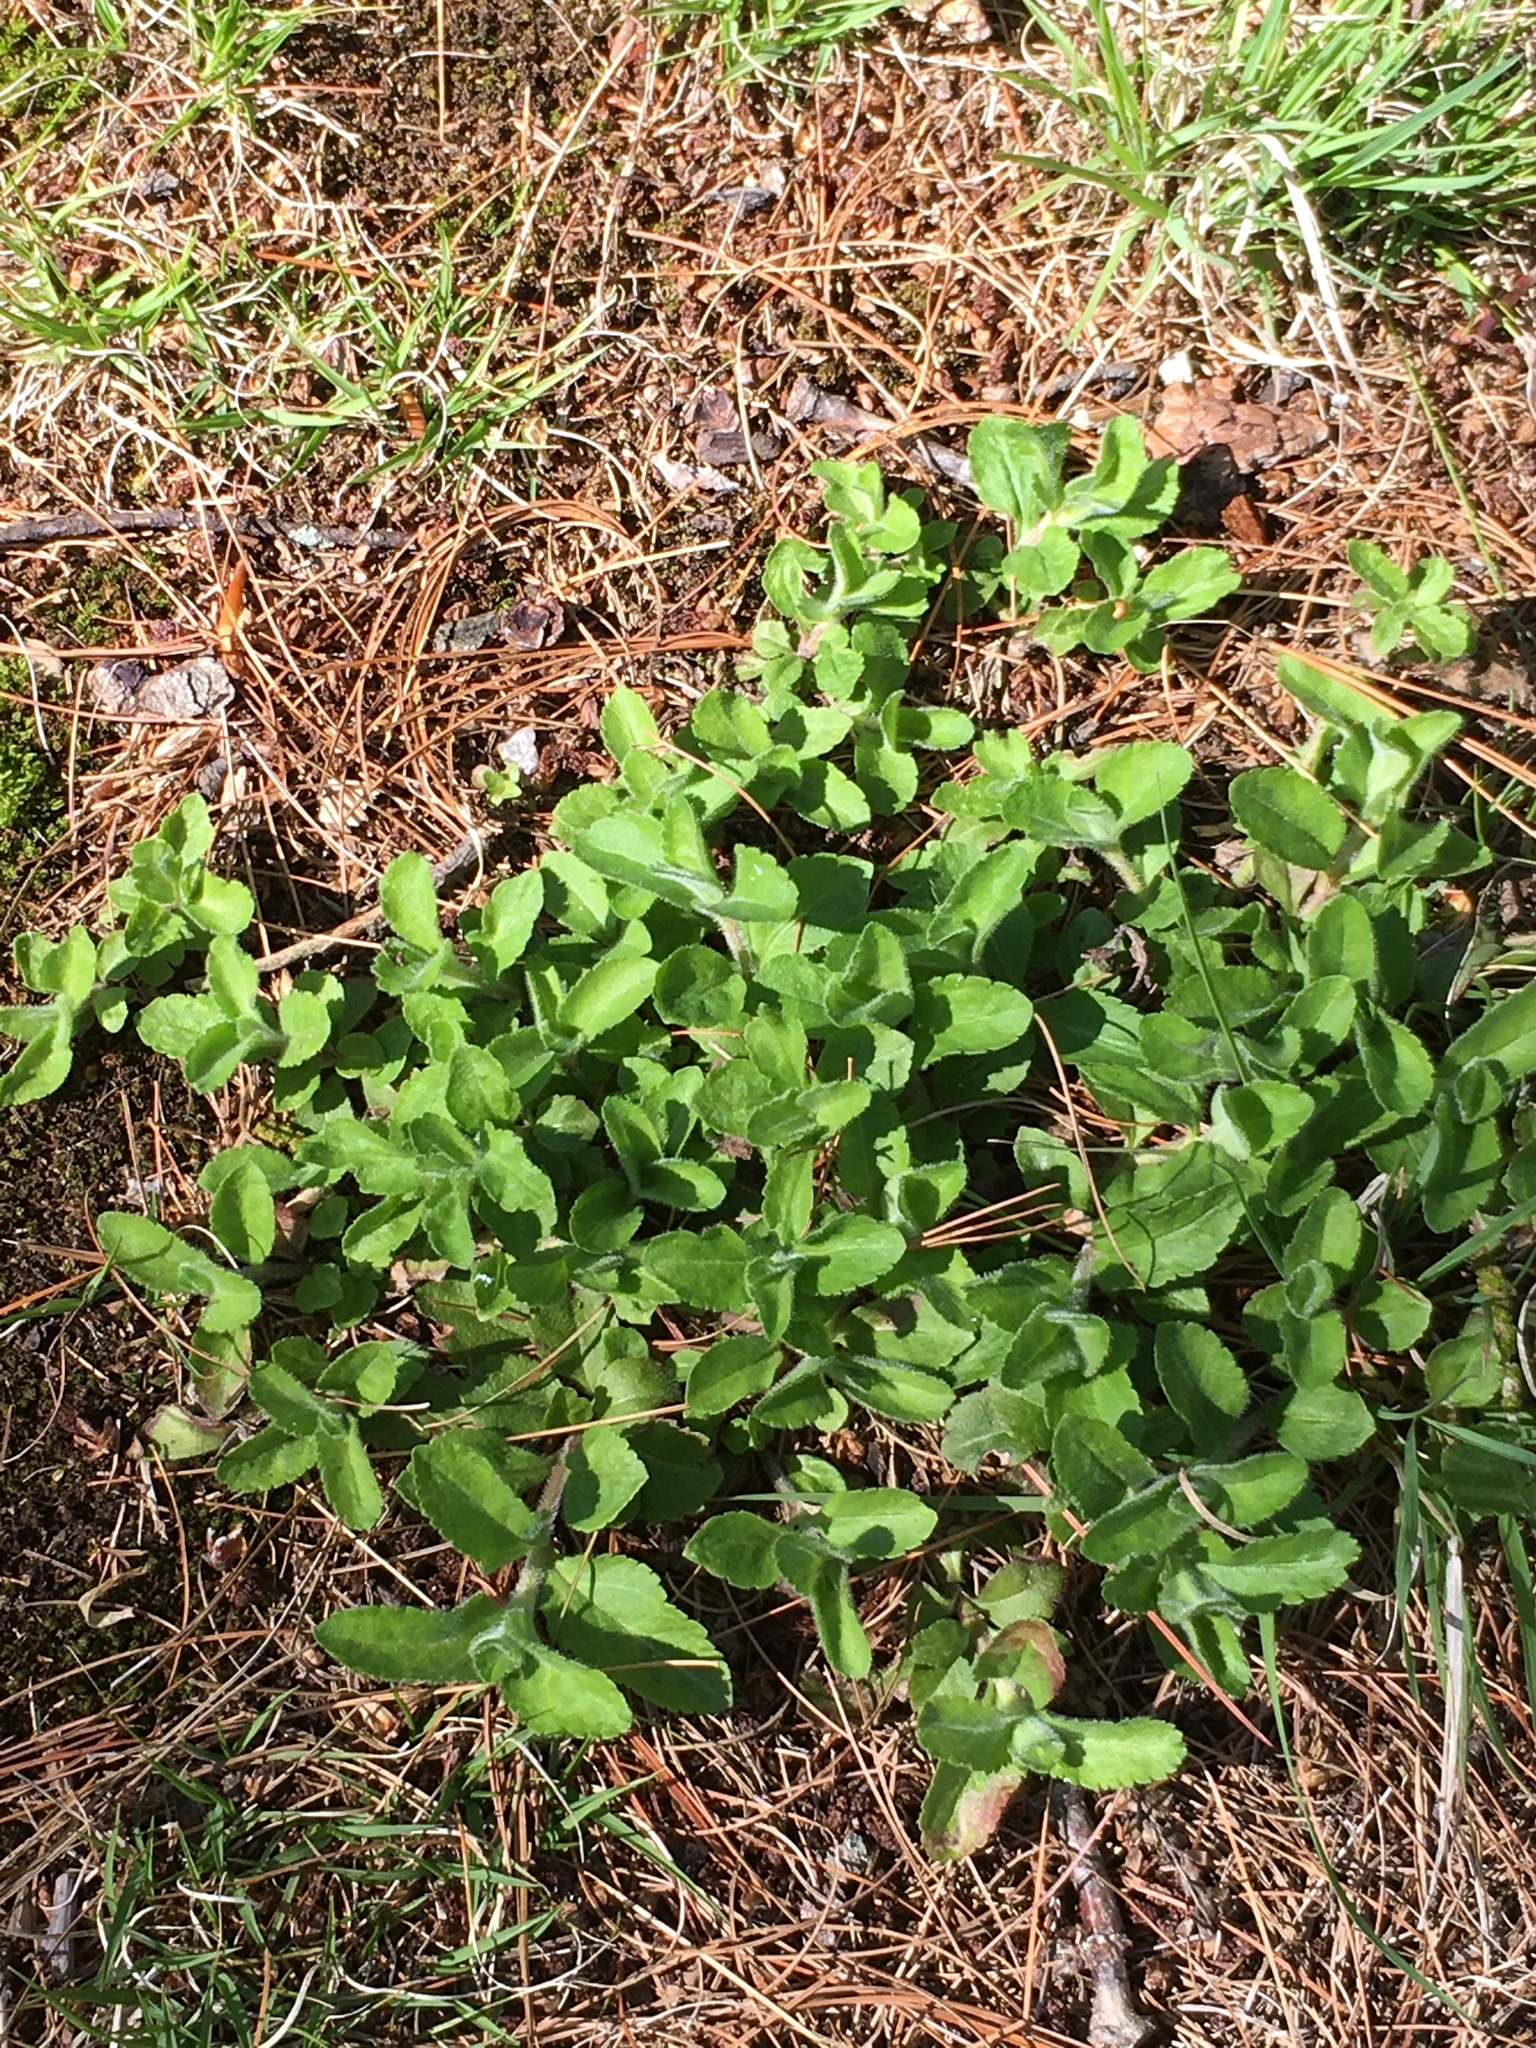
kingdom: Plantae
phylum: Tracheophyta
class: Magnoliopsida
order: Lamiales
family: Plantaginaceae
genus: Veronica
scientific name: Veronica officinalis
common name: Common speedwell
